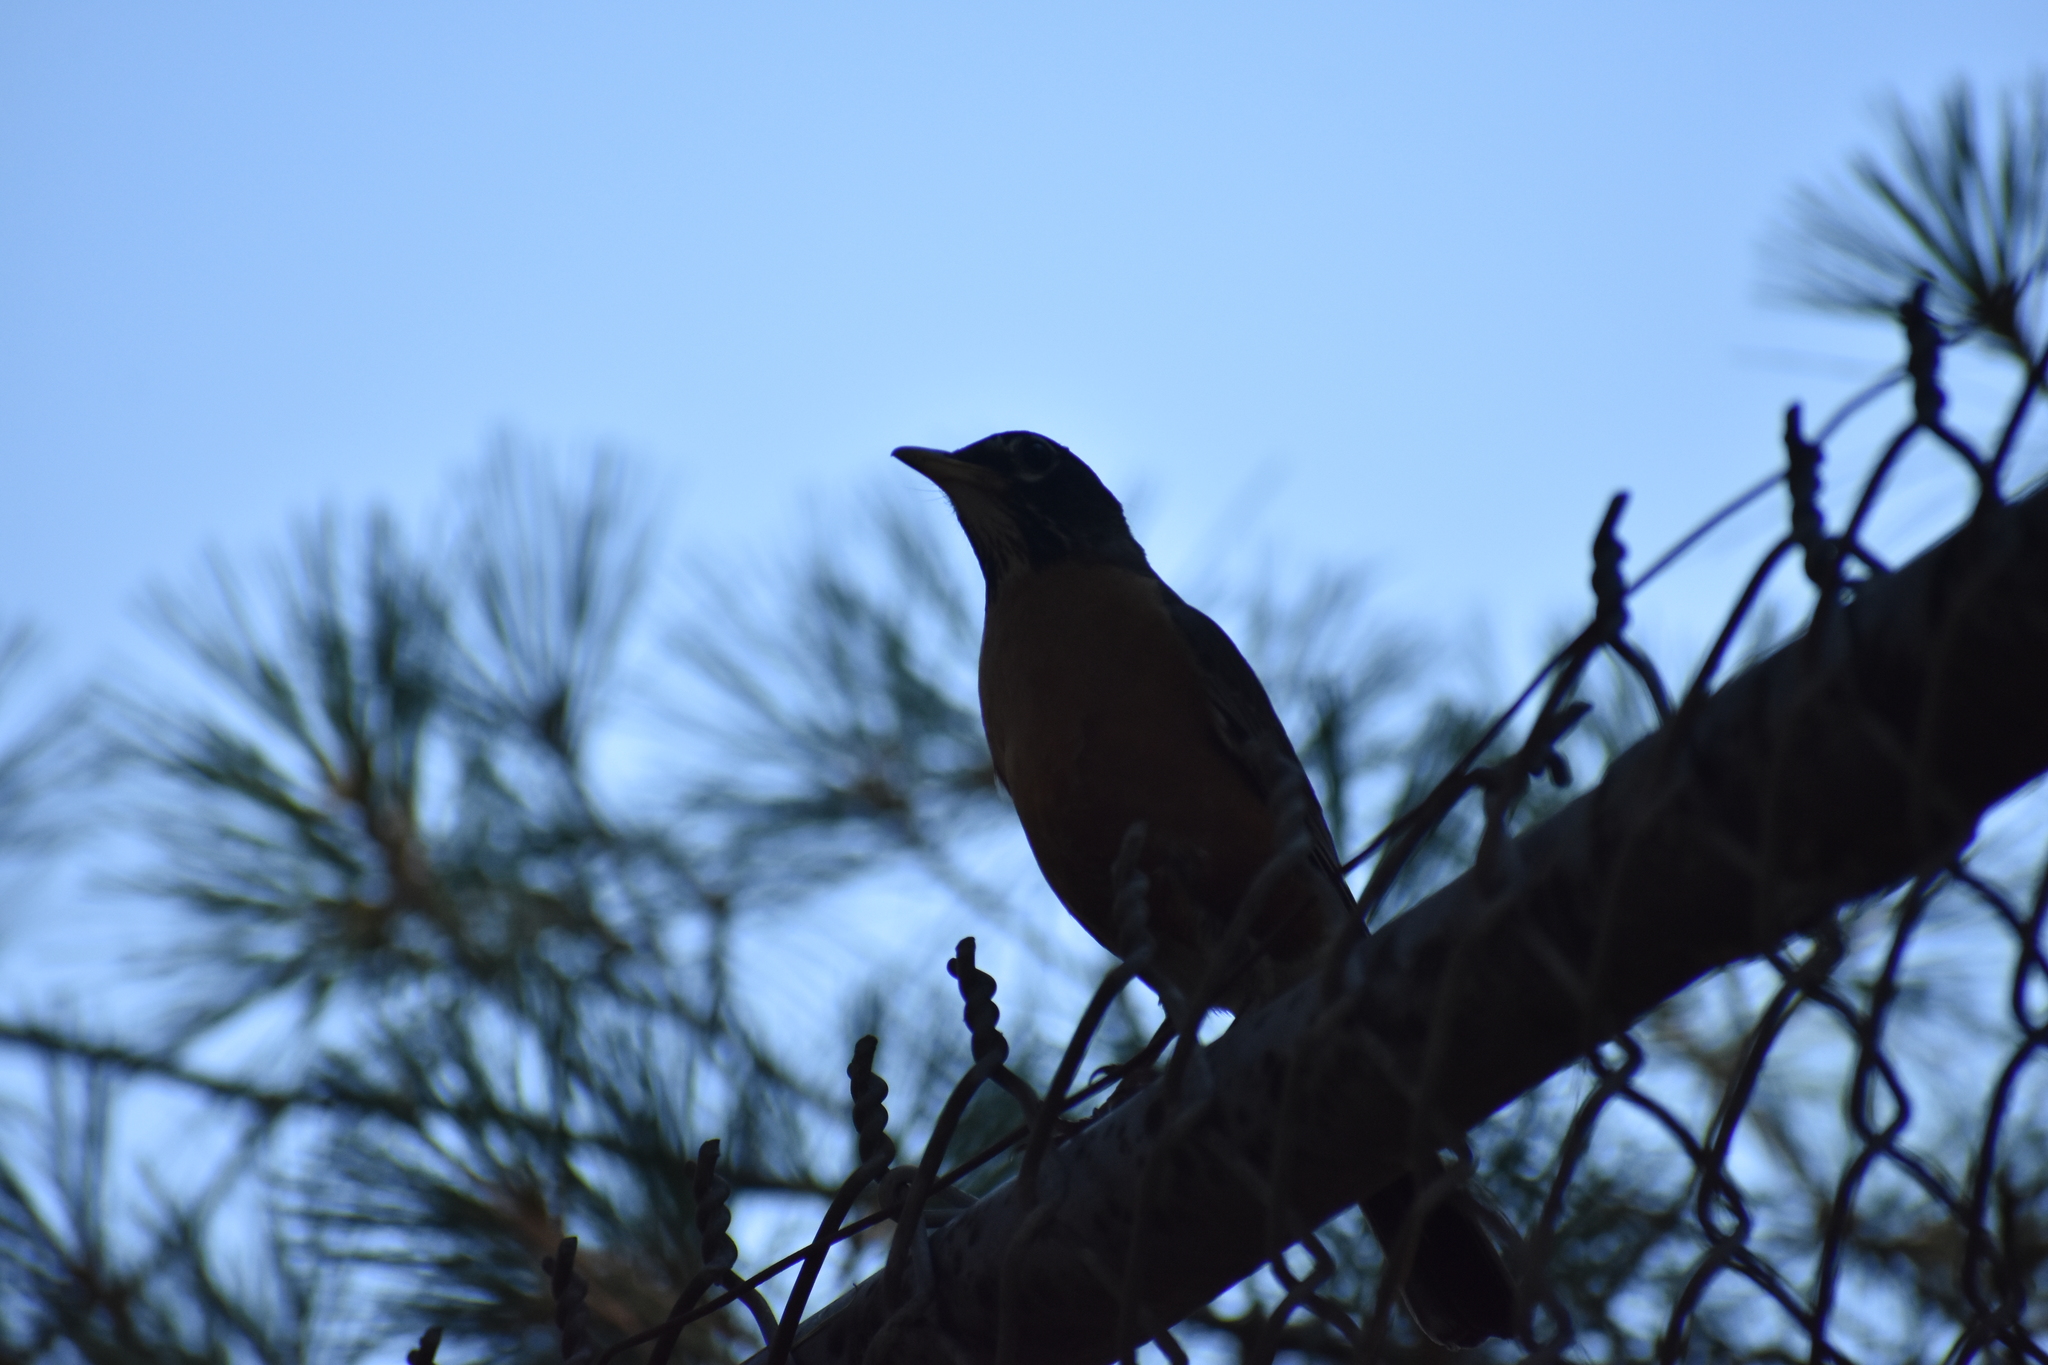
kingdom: Animalia
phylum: Chordata
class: Aves
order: Passeriformes
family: Turdidae
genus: Turdus
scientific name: Turdus migratorius
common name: American robin
